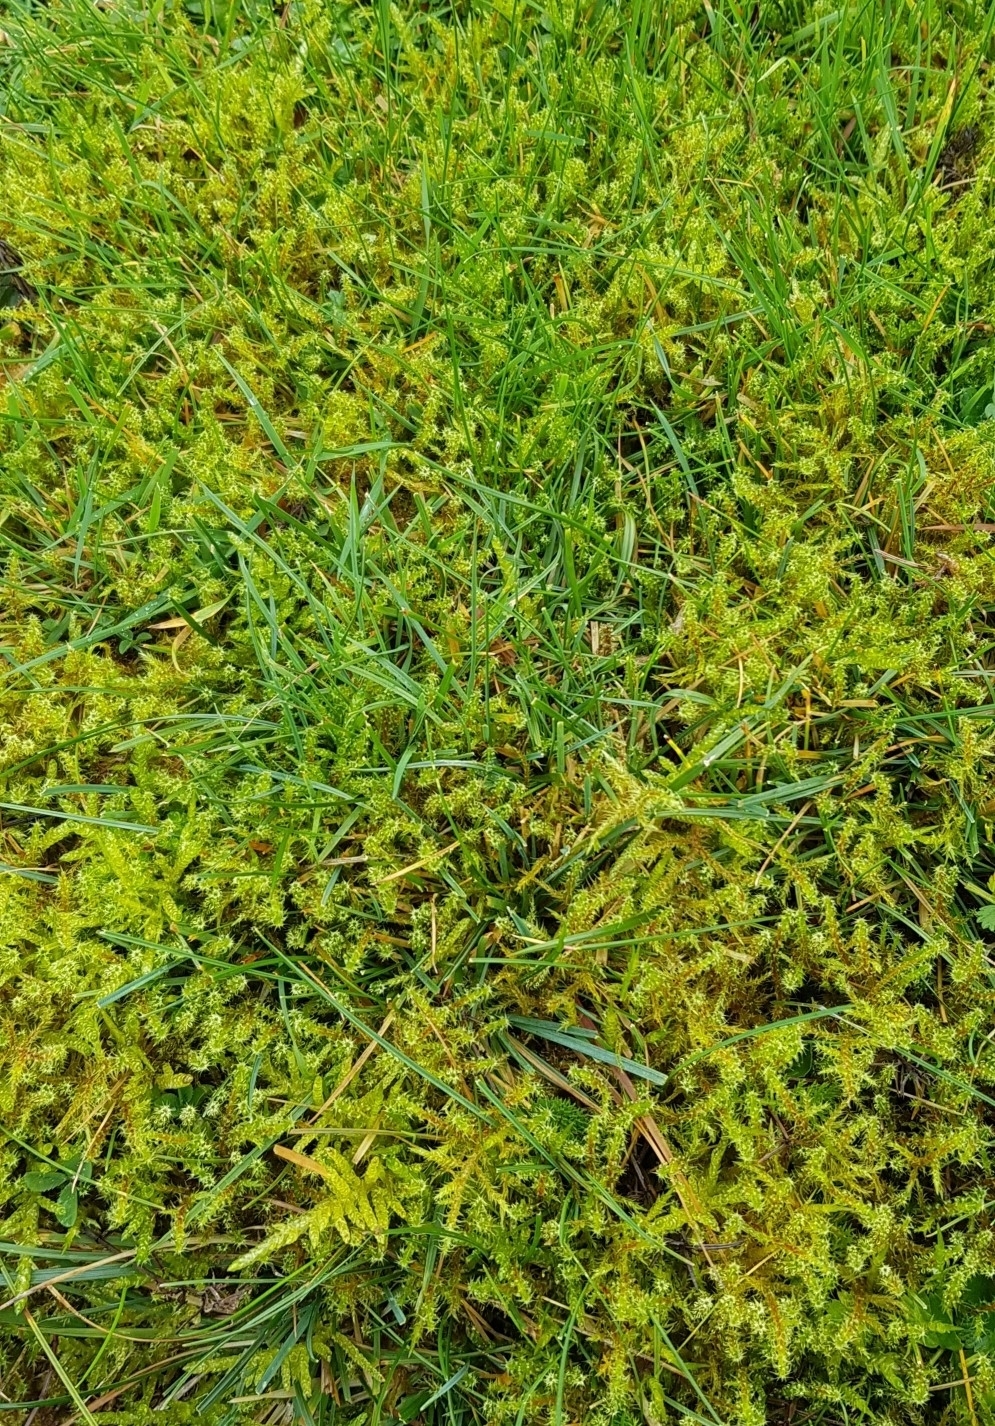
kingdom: Plantae
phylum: Bryophyta
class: Bryopsida
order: Hypnales
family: Hylocomiaceae
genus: Rhytidiadelphus
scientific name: Rhytidiadelphus squarrosus
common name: Springy turf-moss
